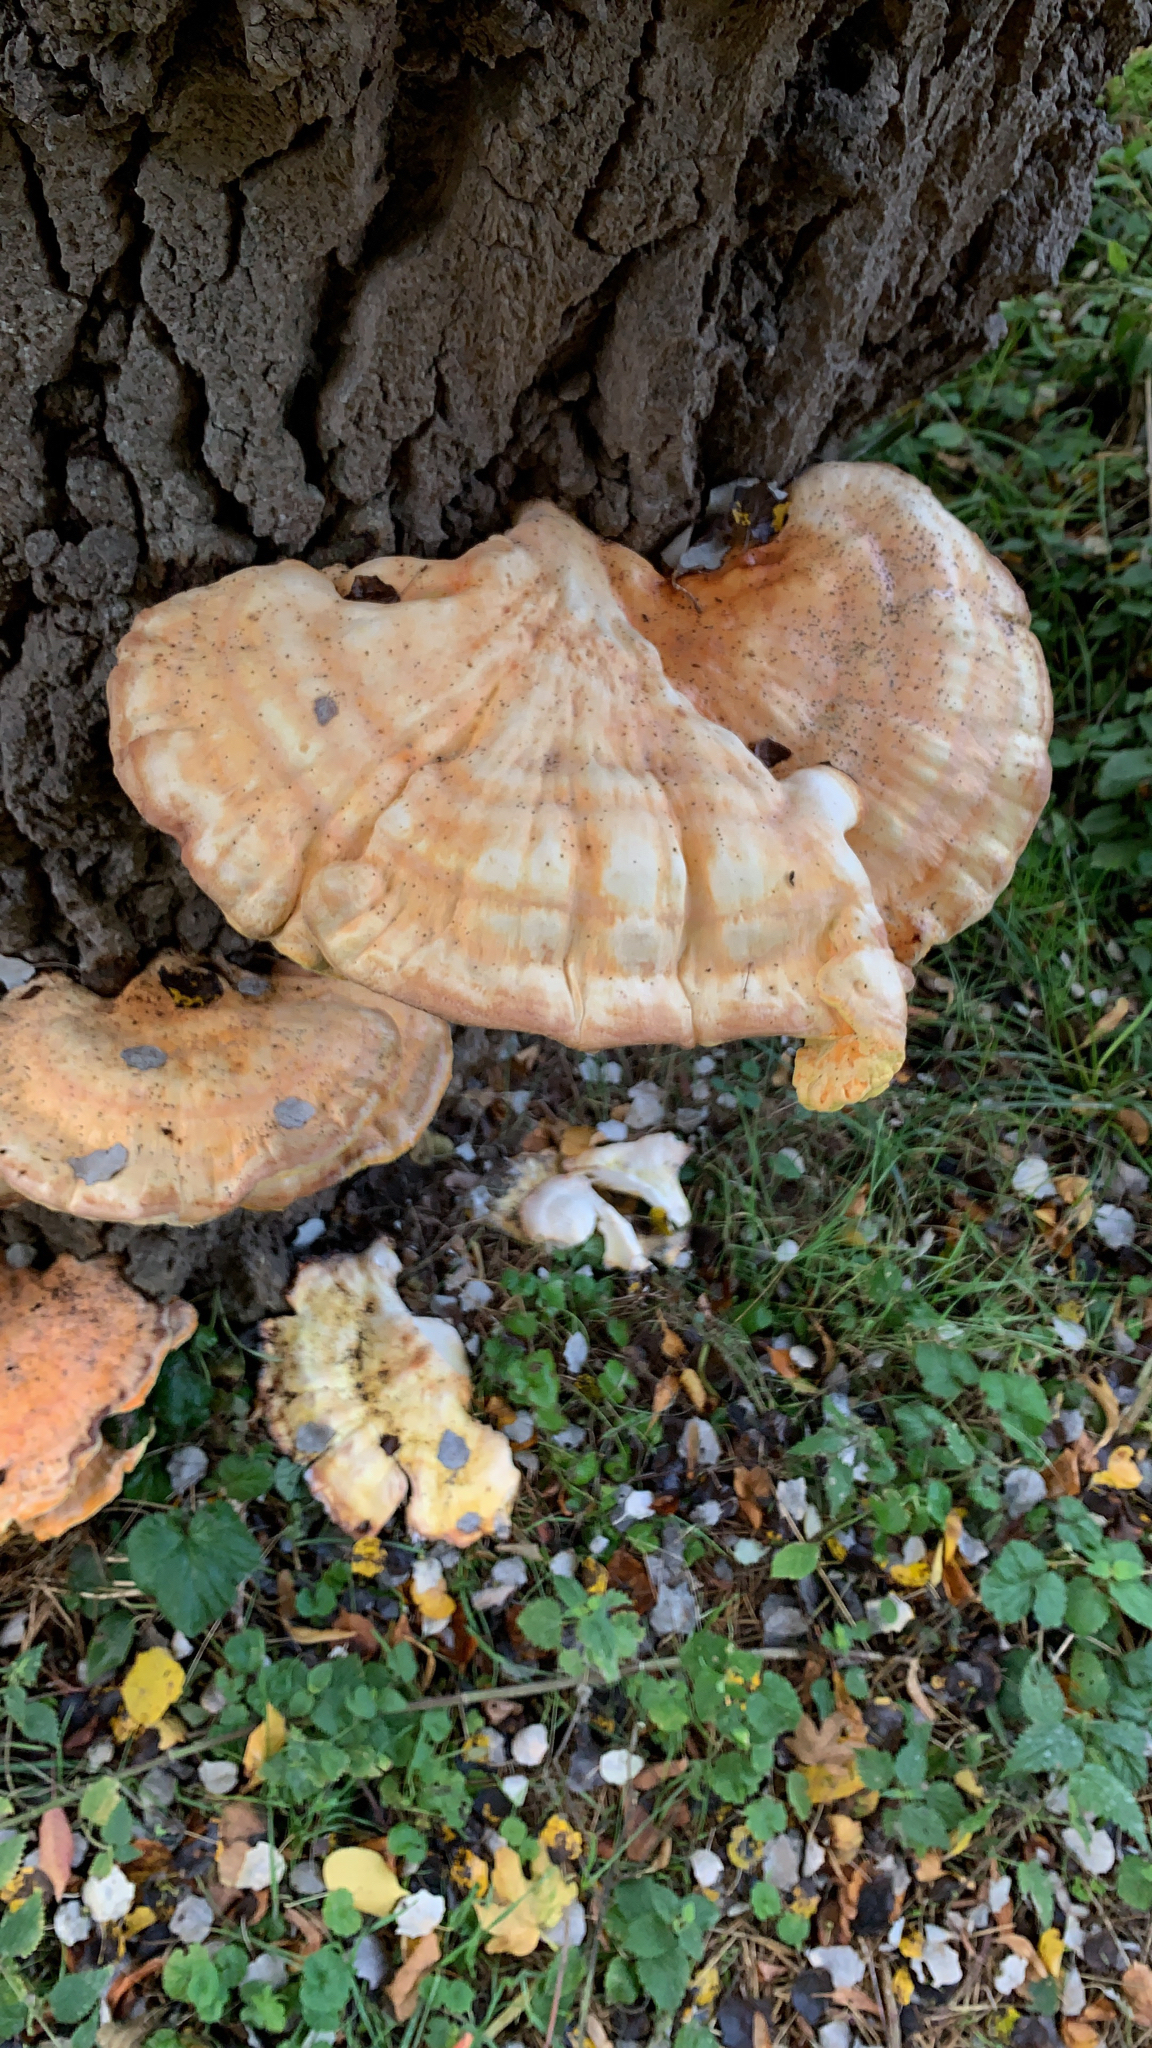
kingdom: Fungi
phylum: Basidiomycota
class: Agaricomycetes
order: Polyporales
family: Laetiporaceae
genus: Laetiporus
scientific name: Laetiporus sulphureus
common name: Chicken of the woods
